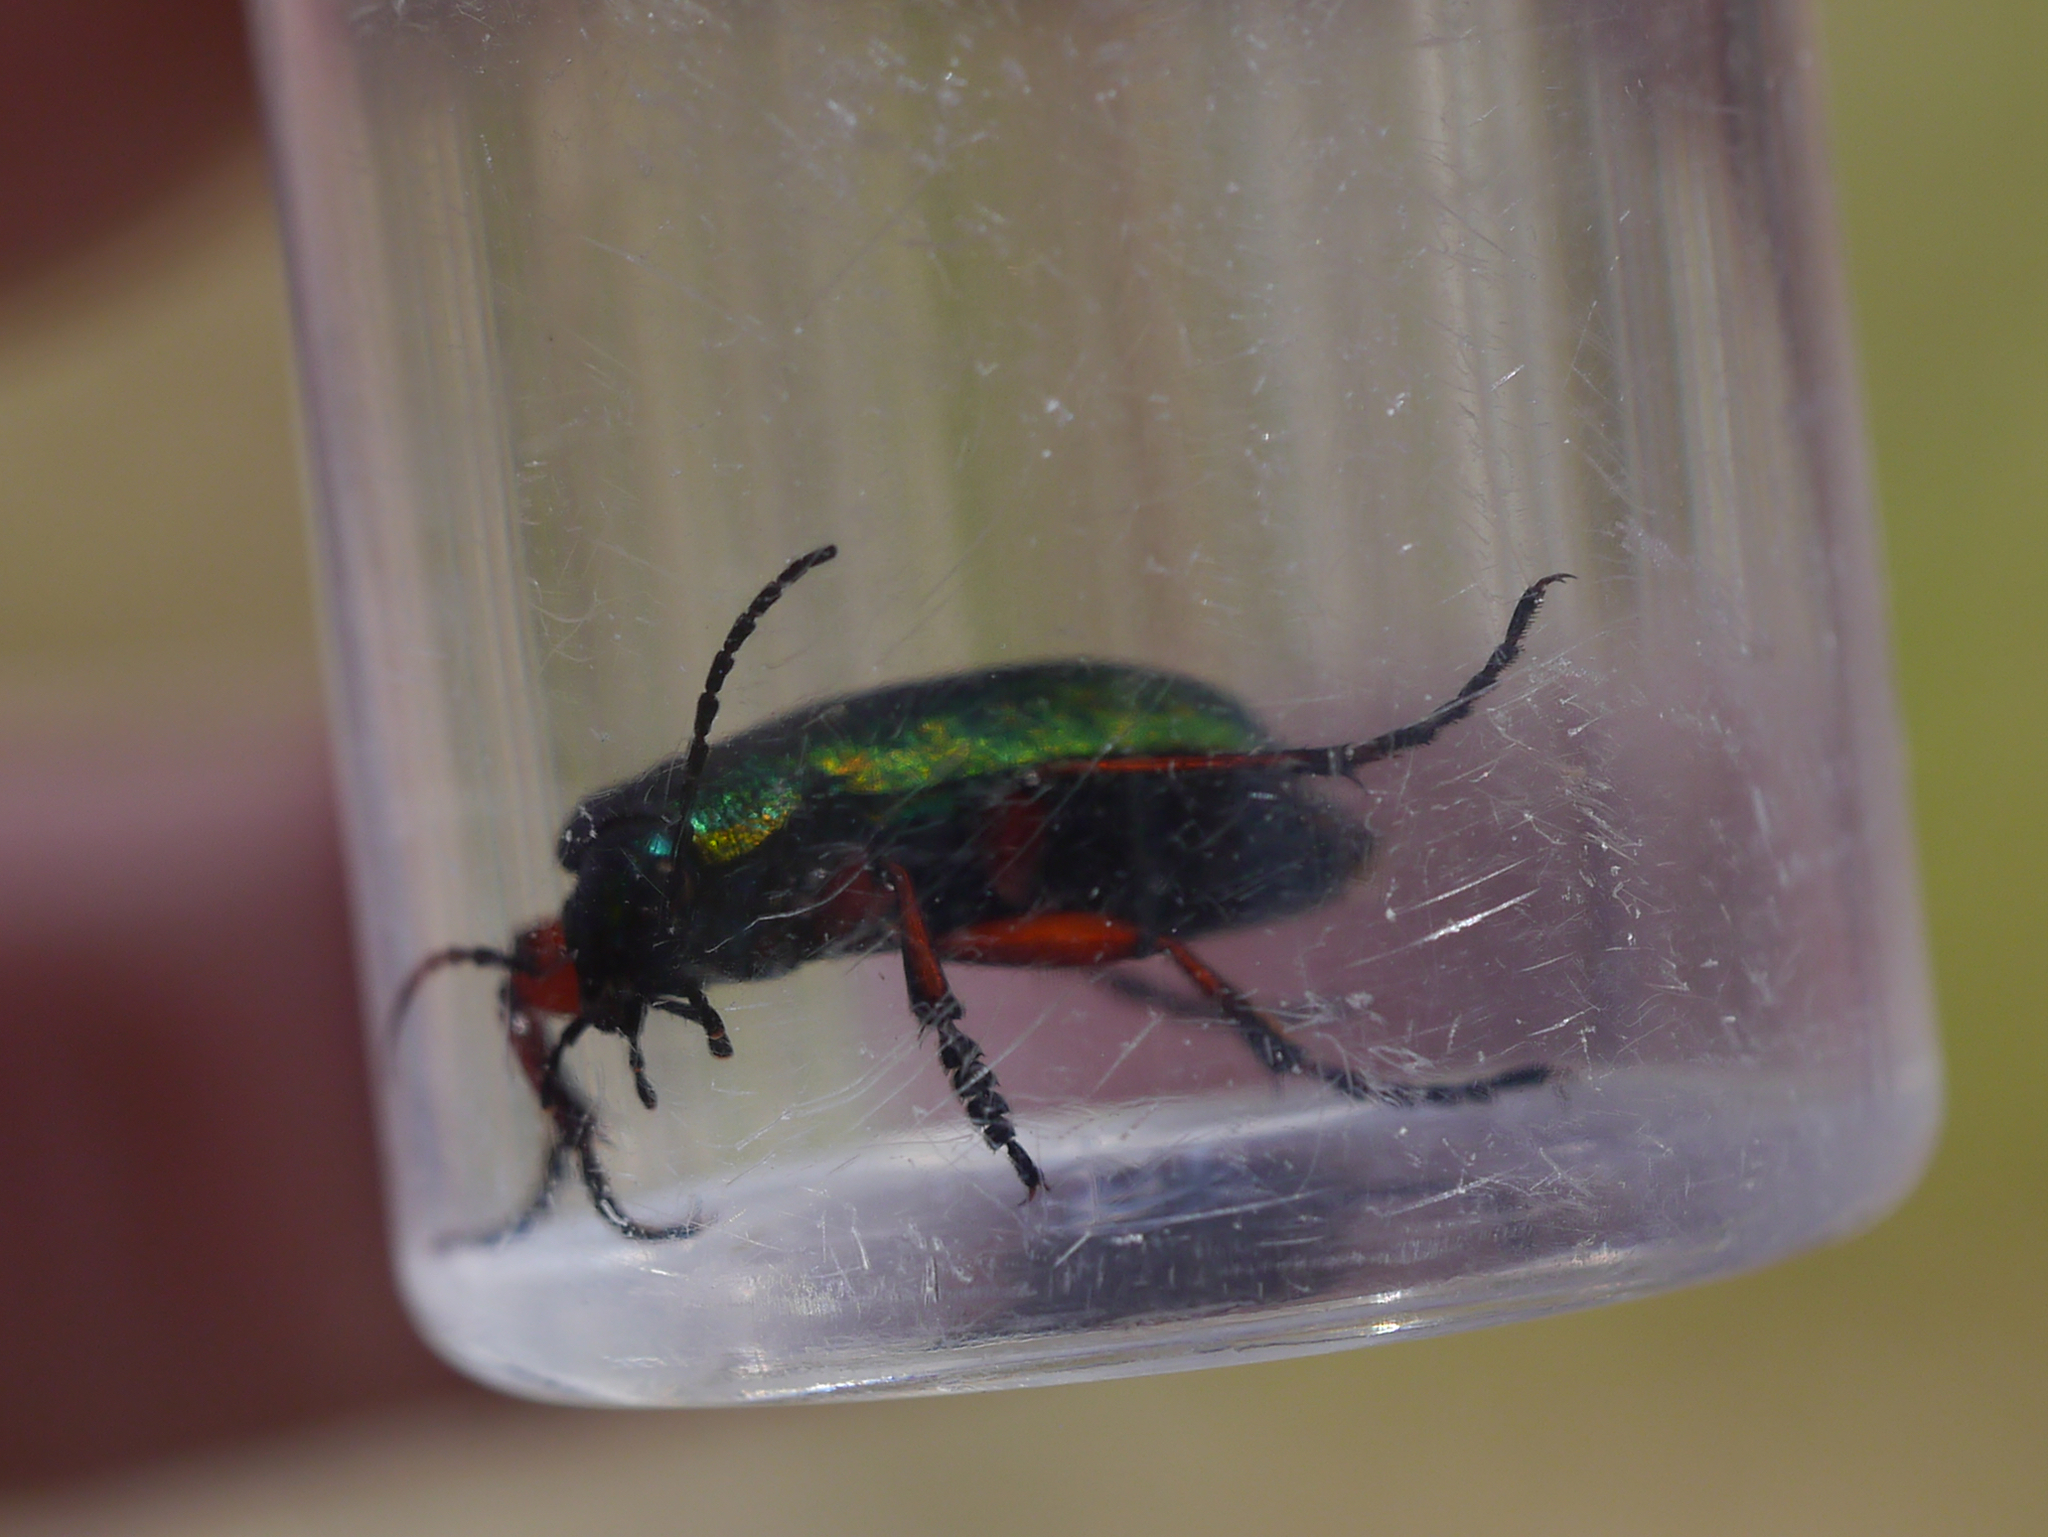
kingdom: Animalia
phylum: Arthropoda
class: Insecta
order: Coleoptera
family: Carabidae
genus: Carabus
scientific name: Carabus truncaticollis
